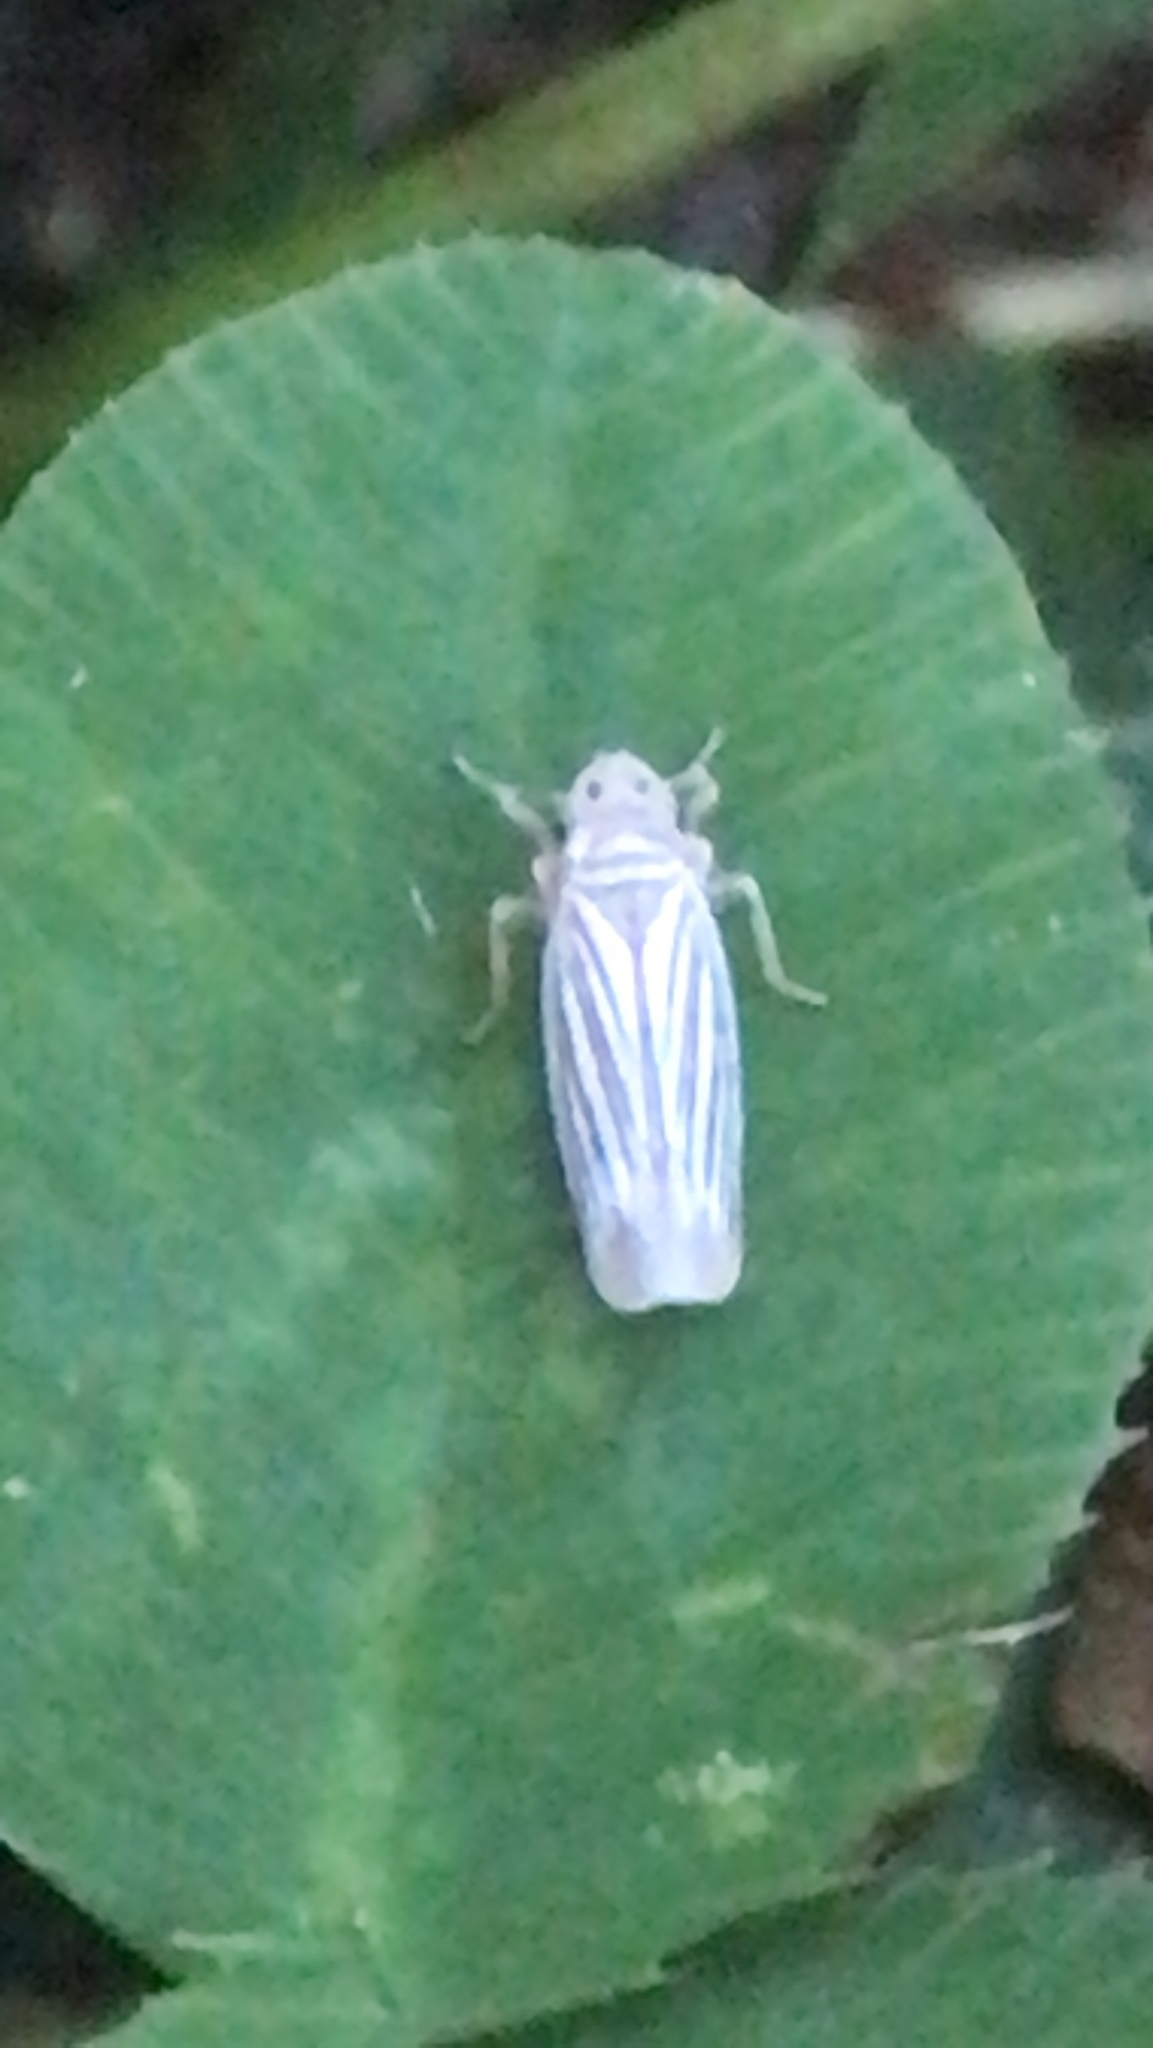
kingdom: Animalia
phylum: Arthropoda
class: Insecta
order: Hemiptera
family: Cicadellidae
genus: Provancherana
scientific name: Provancherana tripunctata
